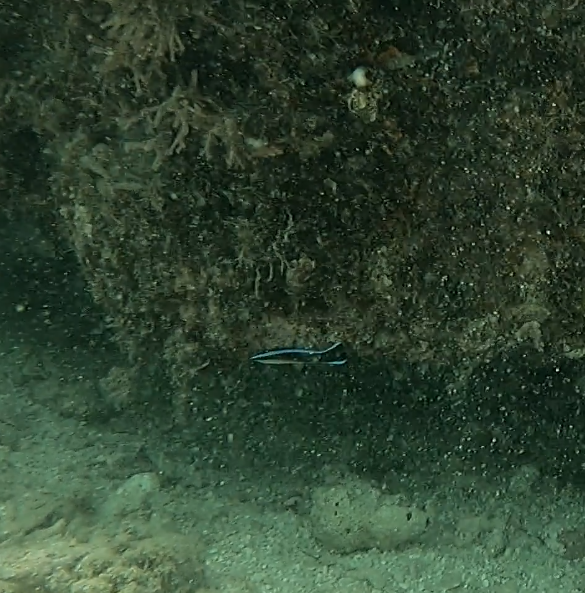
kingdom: Animalia
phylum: Chordata
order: Perciformes
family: Labridae
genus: Labroides
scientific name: Labroides dimidiatus
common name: Blue diesel wrasse
